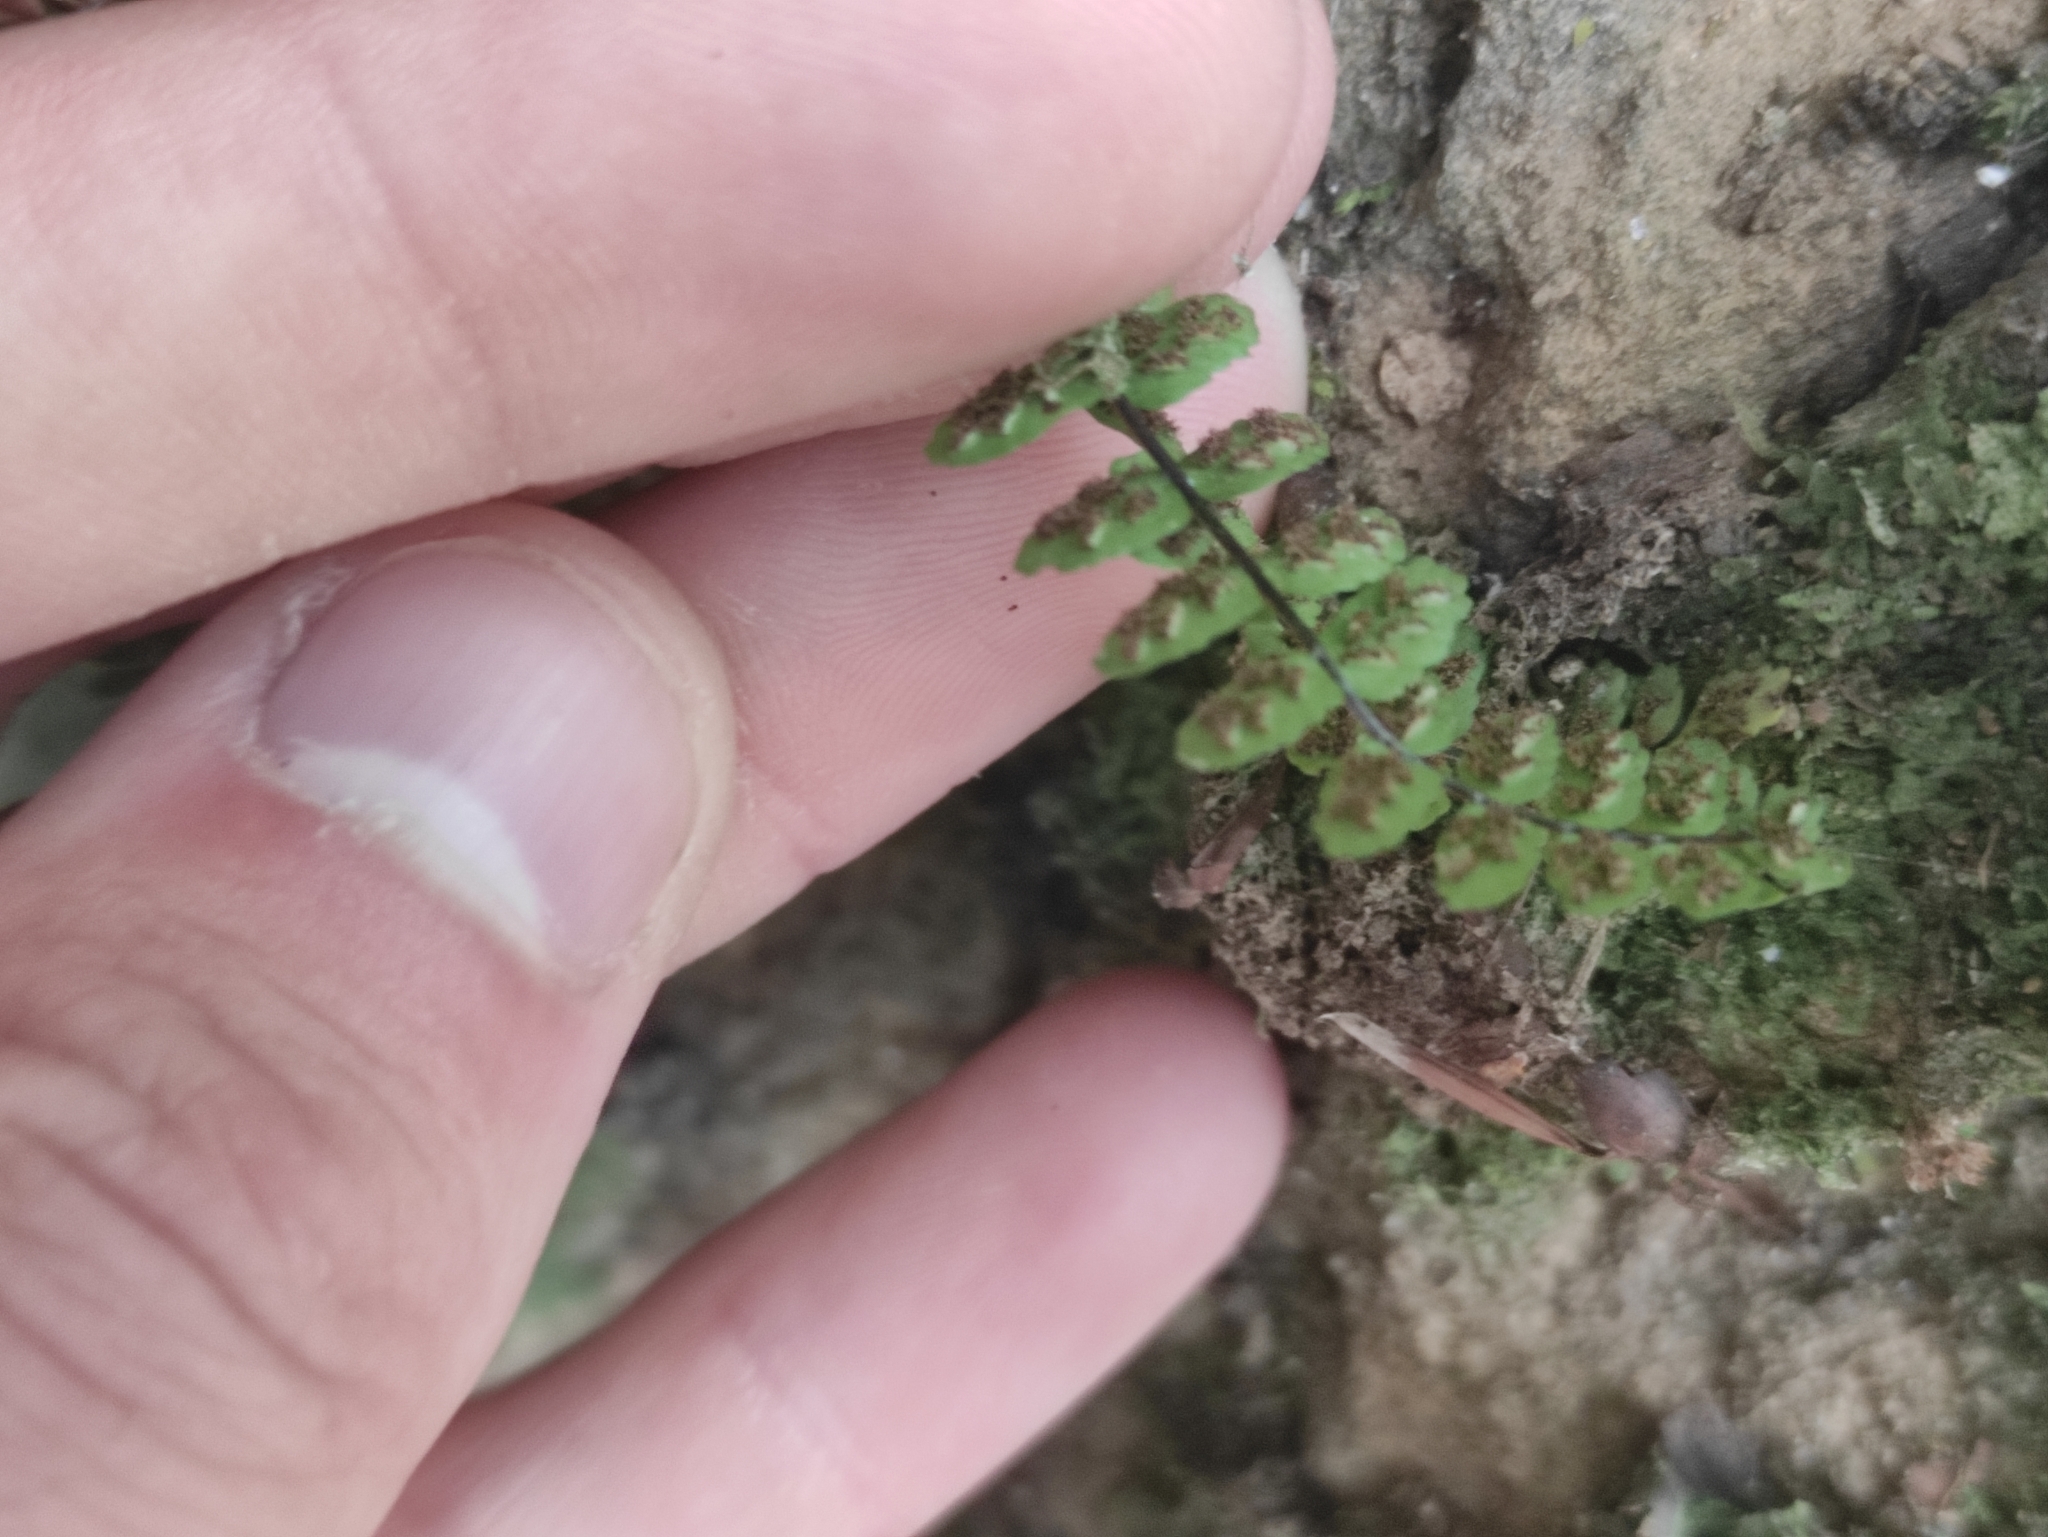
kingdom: Plantae
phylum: Tracheophyta
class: Polypodiopsida
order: Polypodiales
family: Aspleniaceae
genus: Asplenium
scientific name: Asplenium trichomanes
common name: Maidenhair spleenwort
